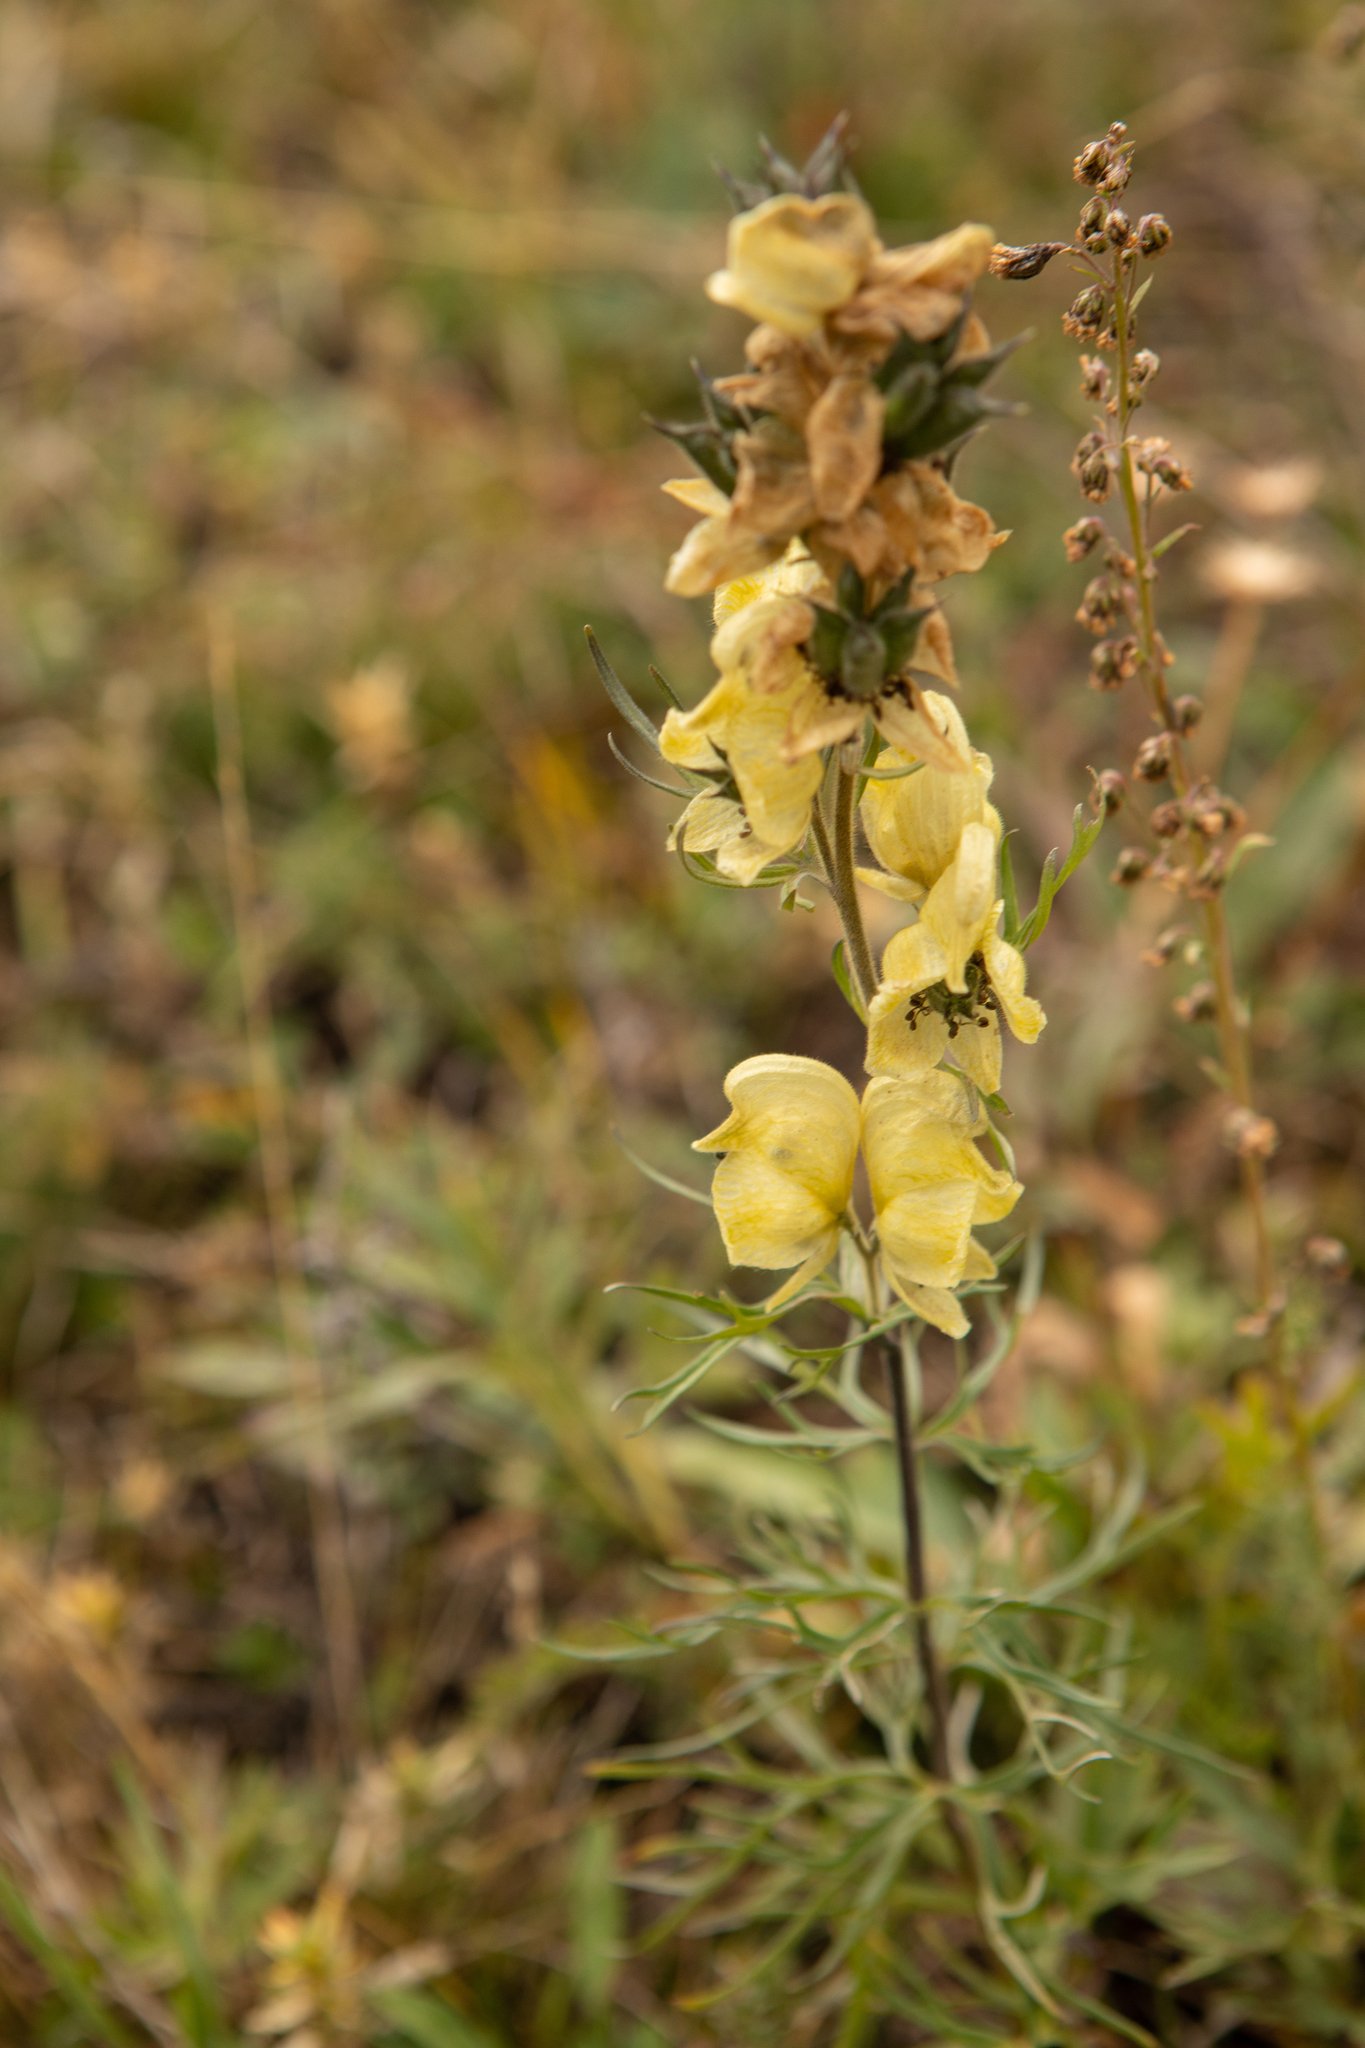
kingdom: Plantae
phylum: Tracheophyta
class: Magnoliopsida
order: Ranunculales
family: Ranunculaceae
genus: Aconitum
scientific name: Aconitum anthora
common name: Yellow monkshood
